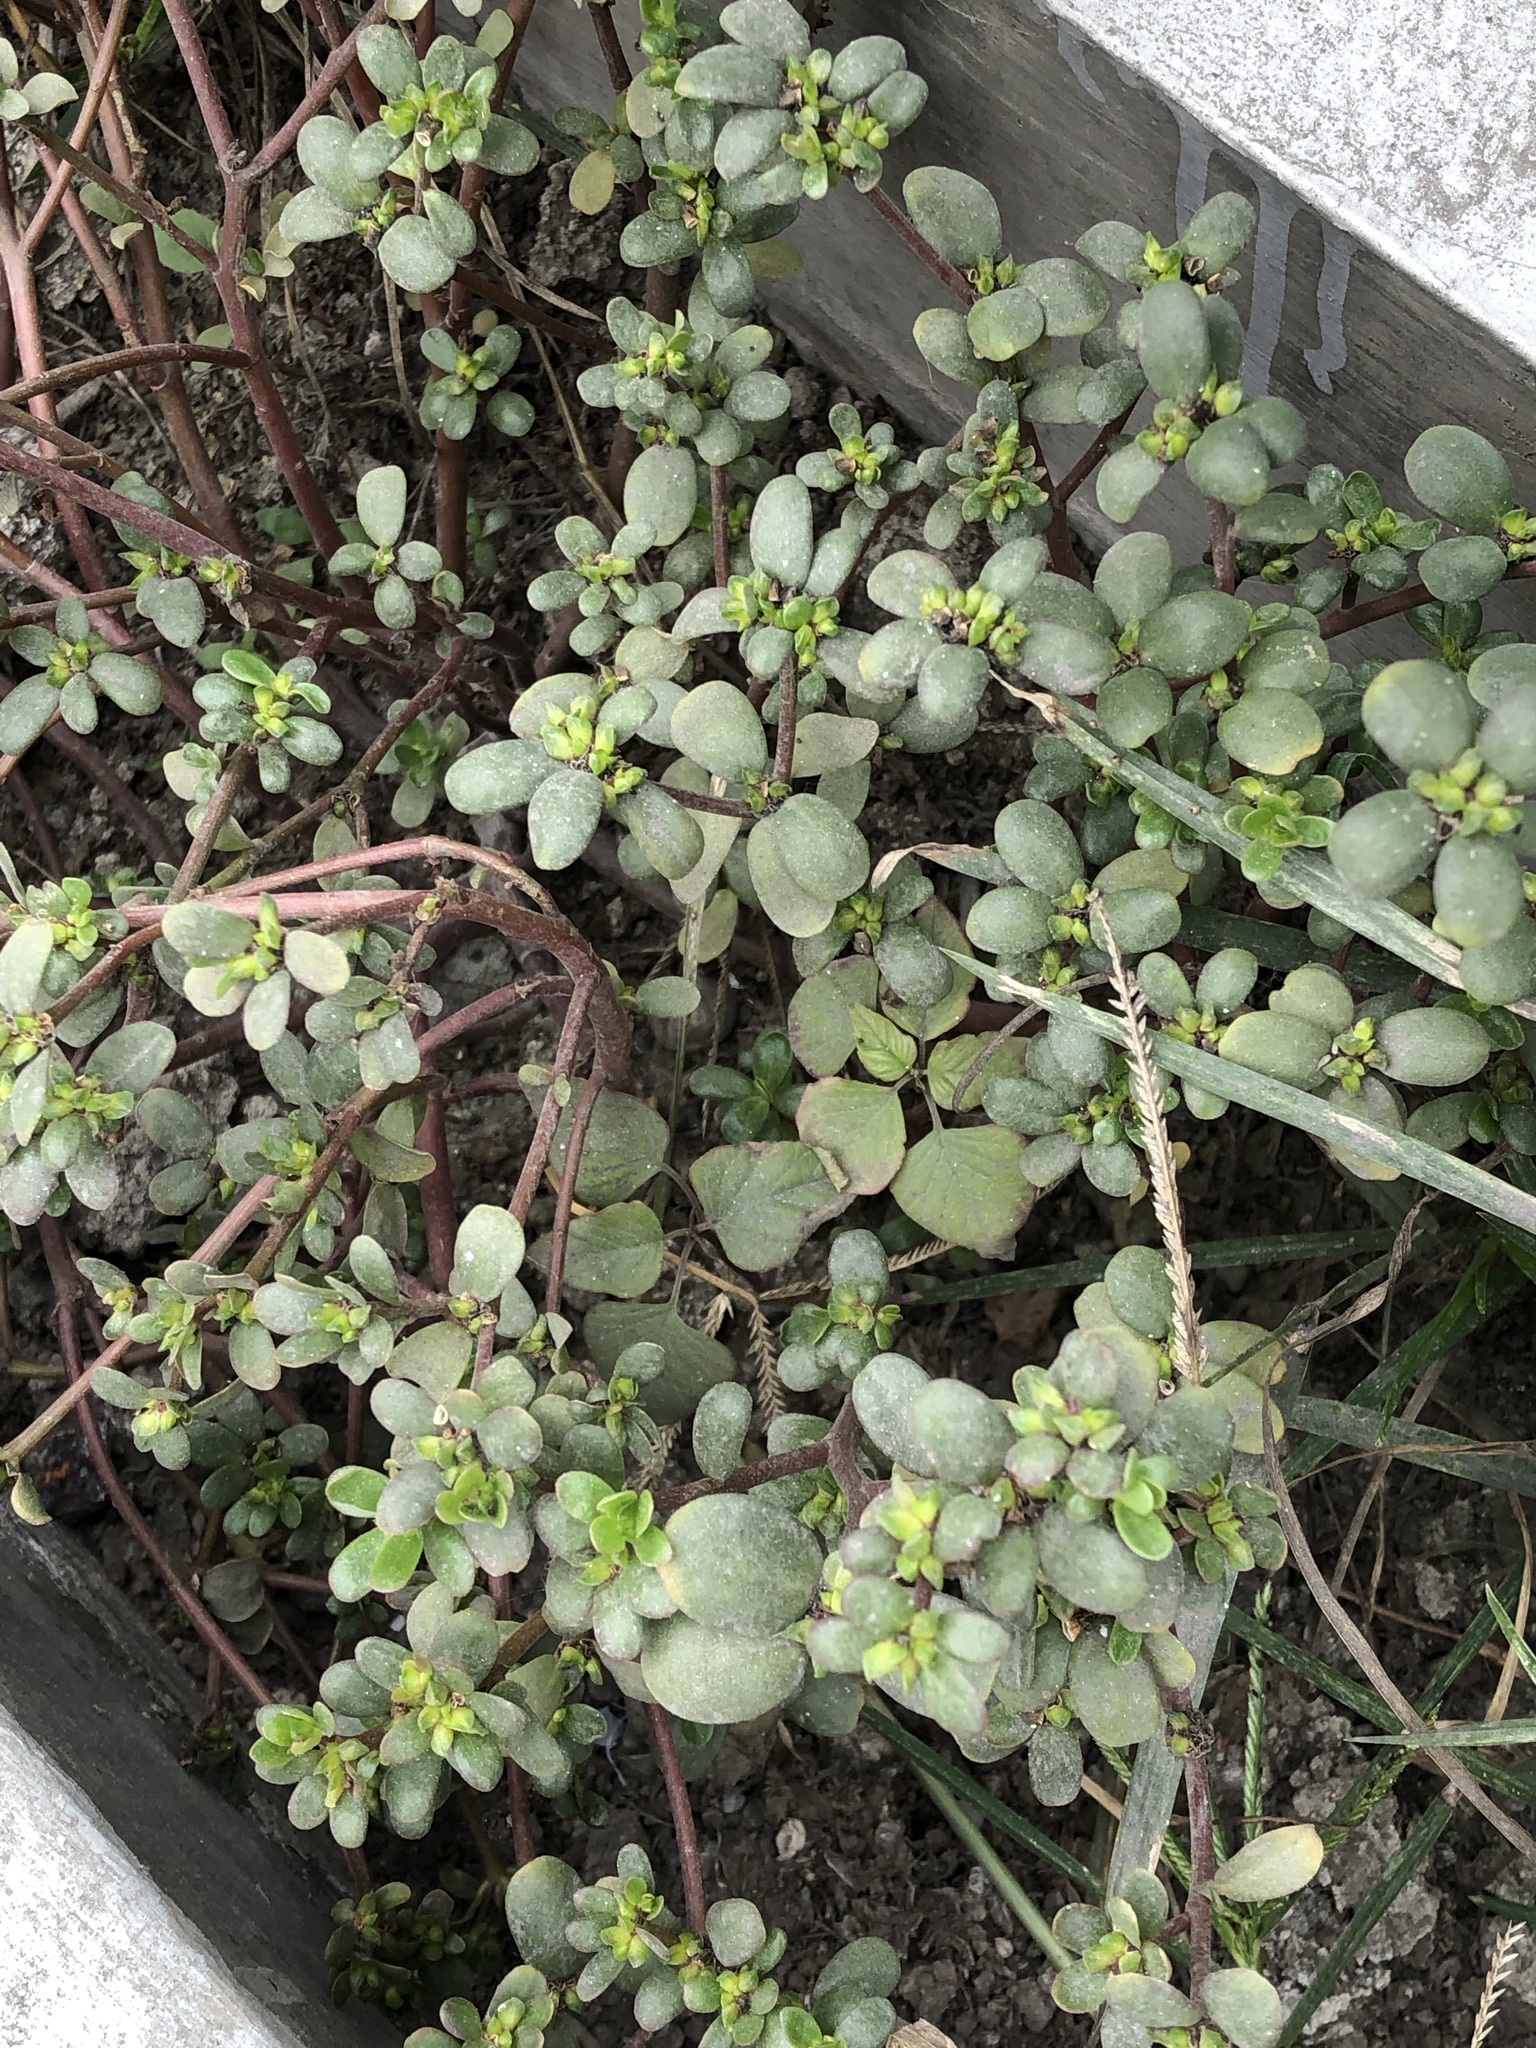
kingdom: Plantae
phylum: Tracheophyta
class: Magnoliopsida
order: Caryophyllales
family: Portulacaceae
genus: Portulaca
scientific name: Portulaca oleracea
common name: Common purslane
